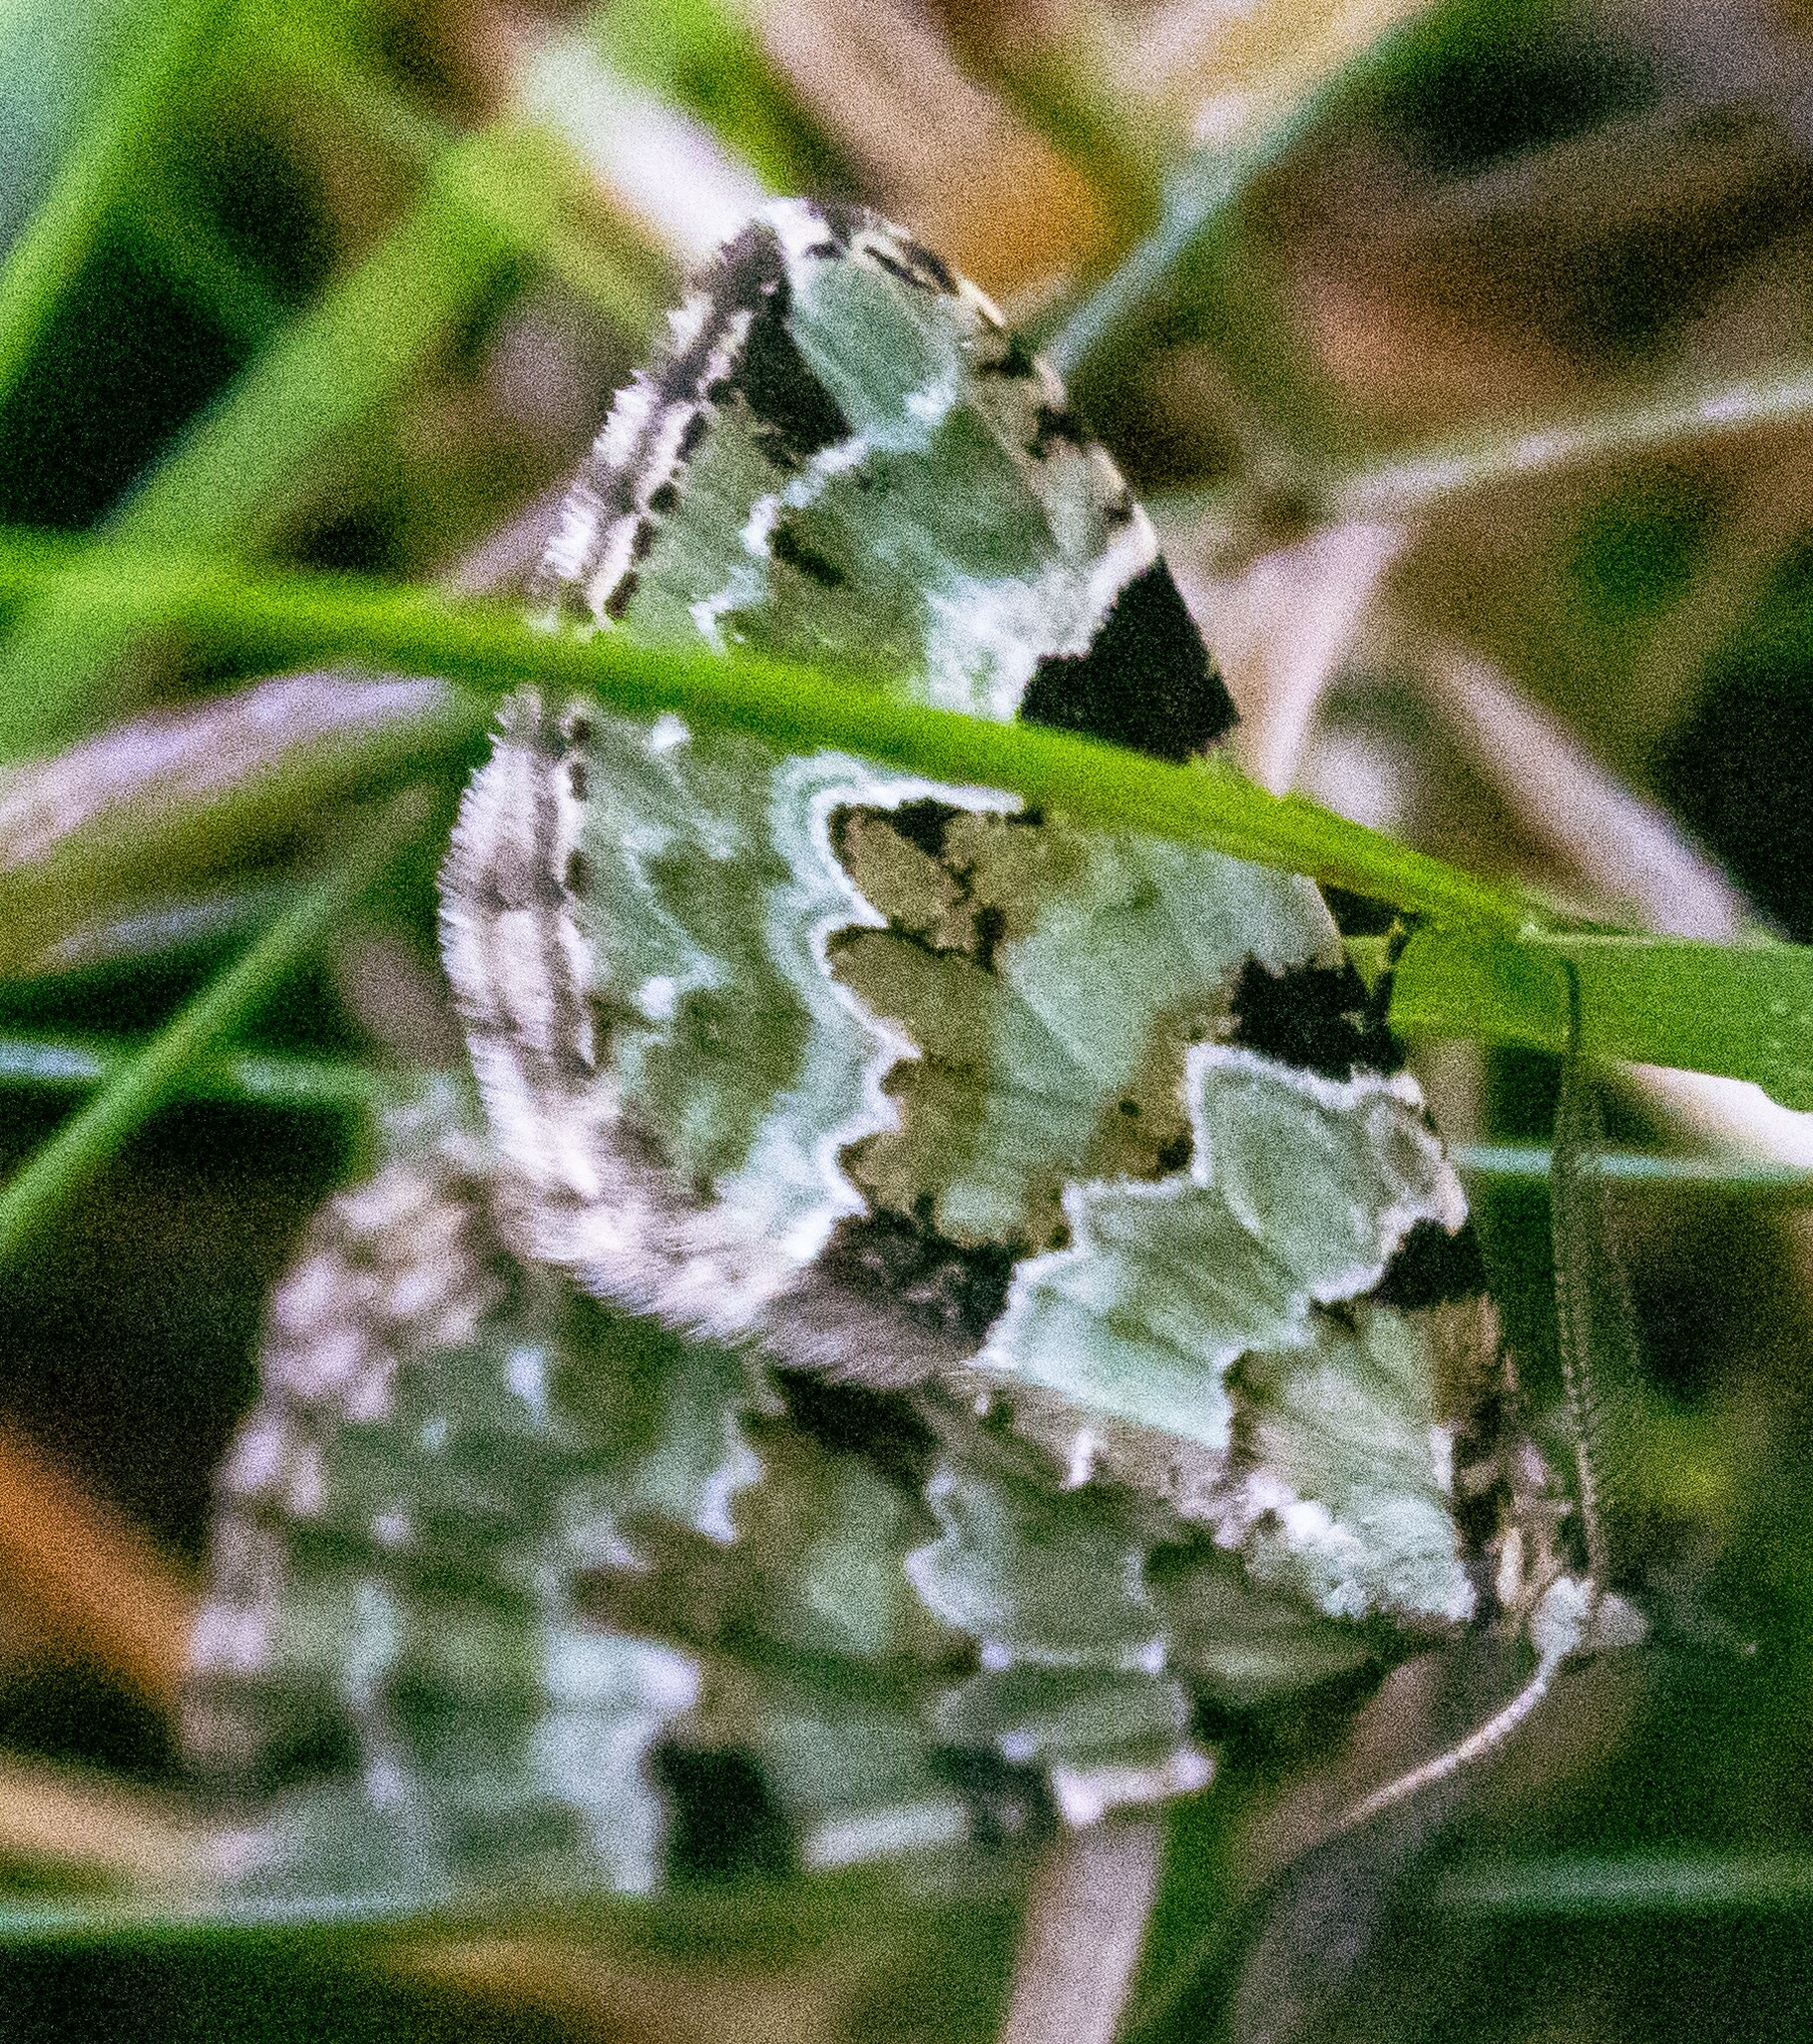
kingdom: Animalia
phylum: Arthropoda
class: Insecta
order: Lepidoptera
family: Geometridae
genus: Colostygia
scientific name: Colostygia pectinataria
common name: Green carpet
